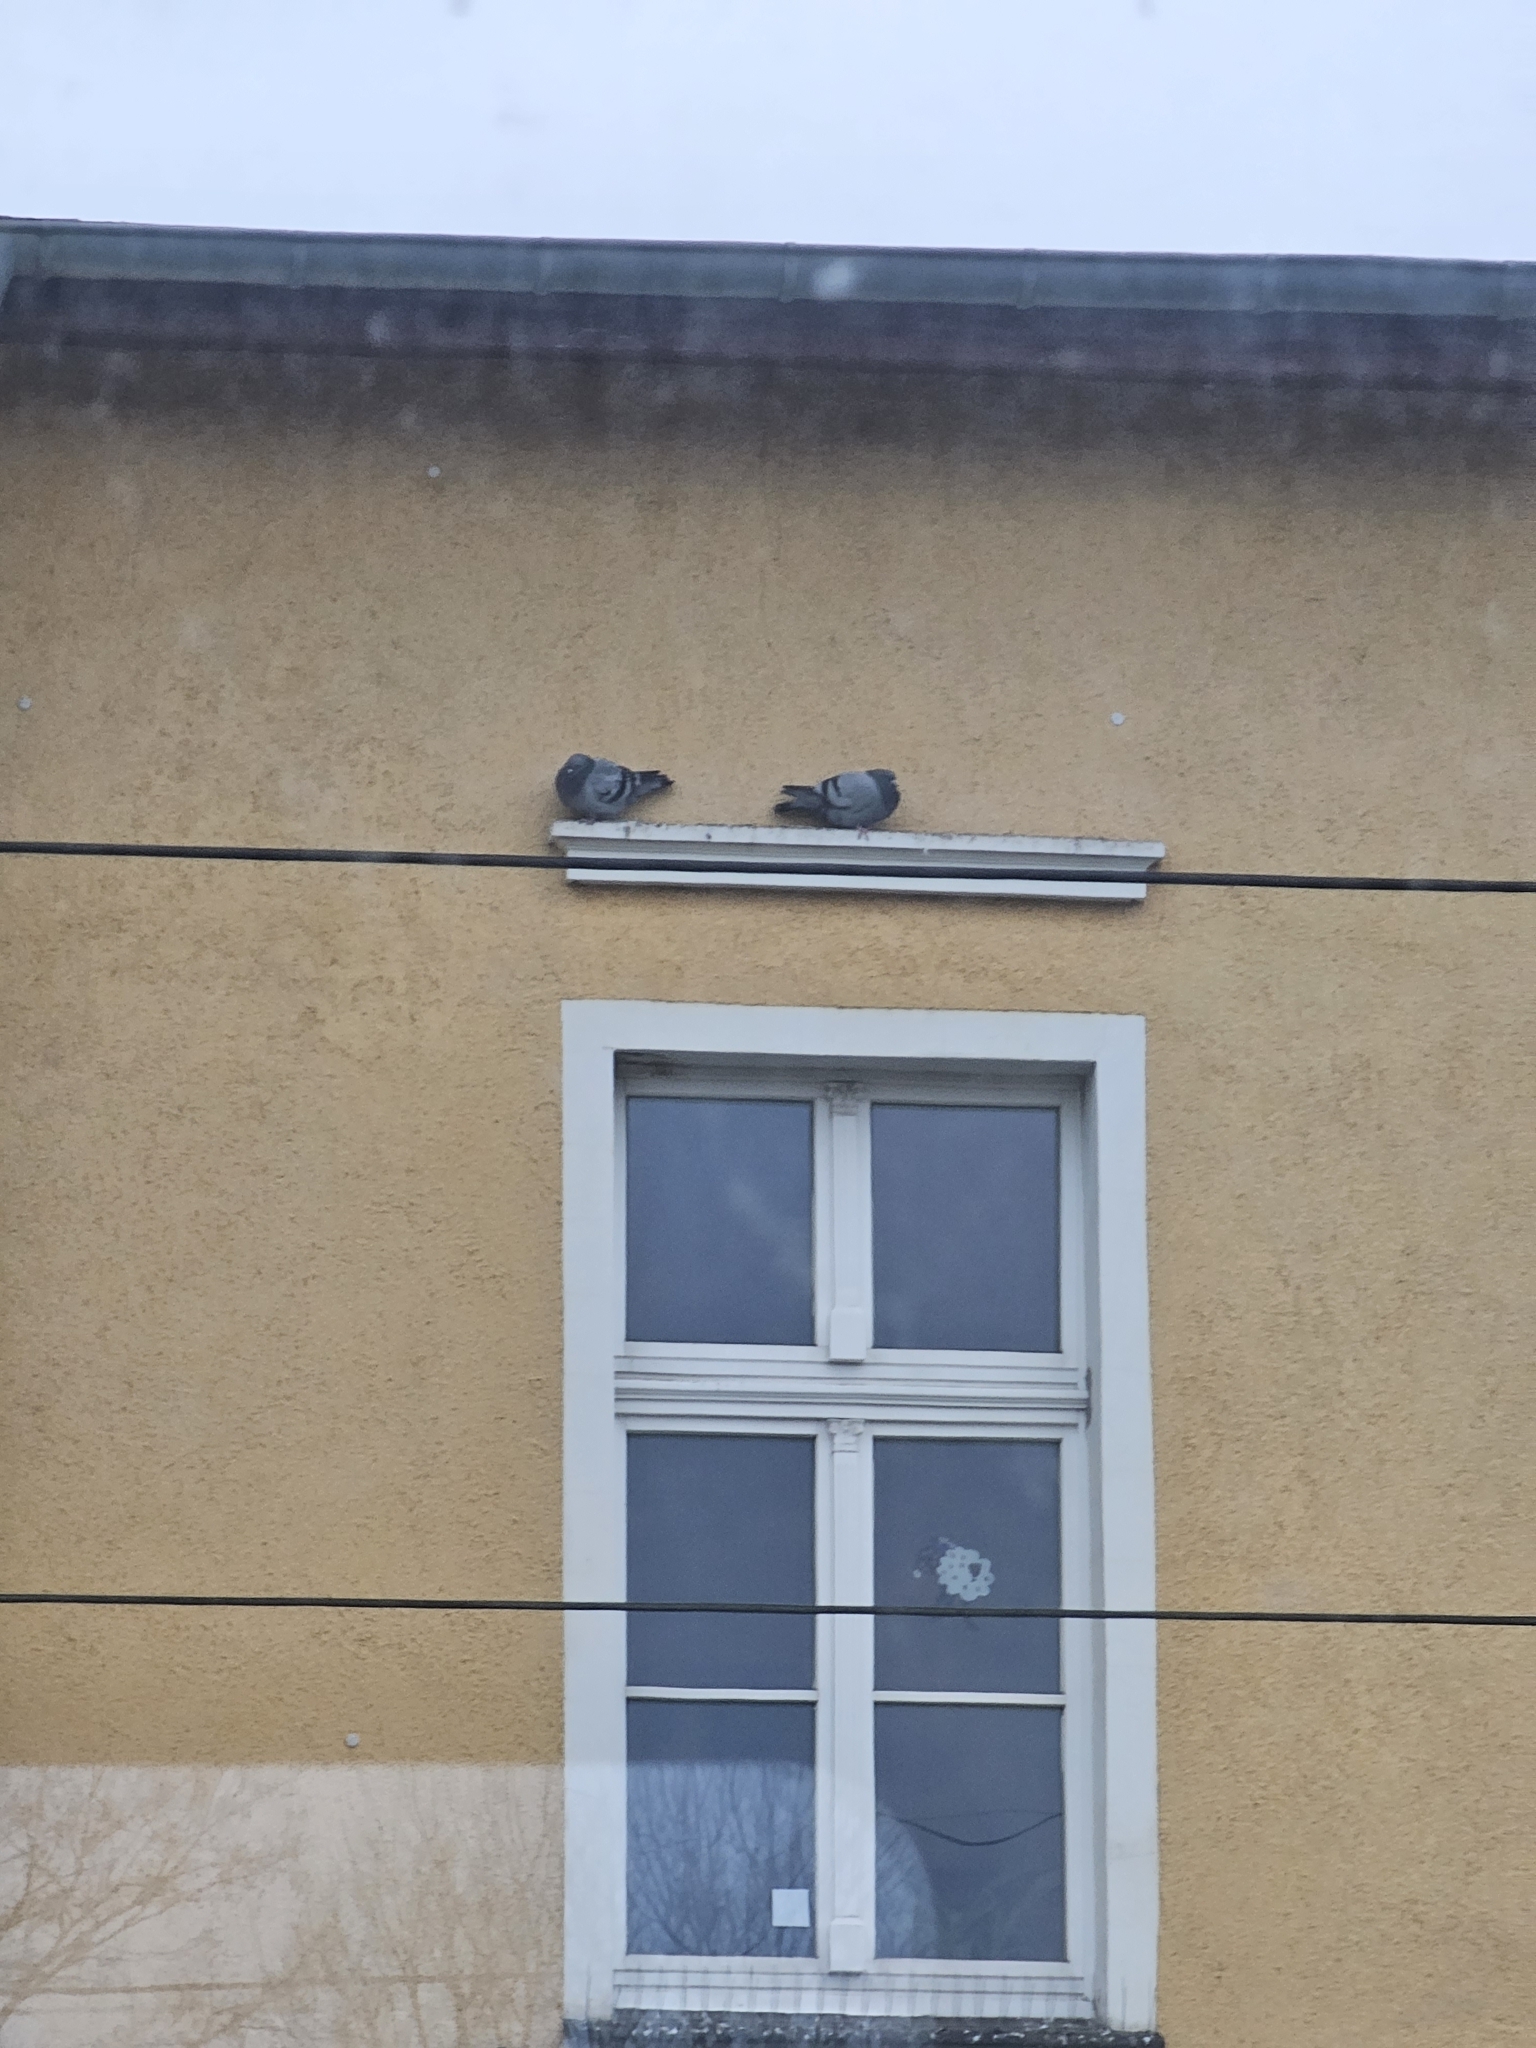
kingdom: Animalia
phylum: Chordata
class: Aves
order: Columbiformes
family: Columbidae
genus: Columba
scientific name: Columba livia
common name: Rock pigeon
